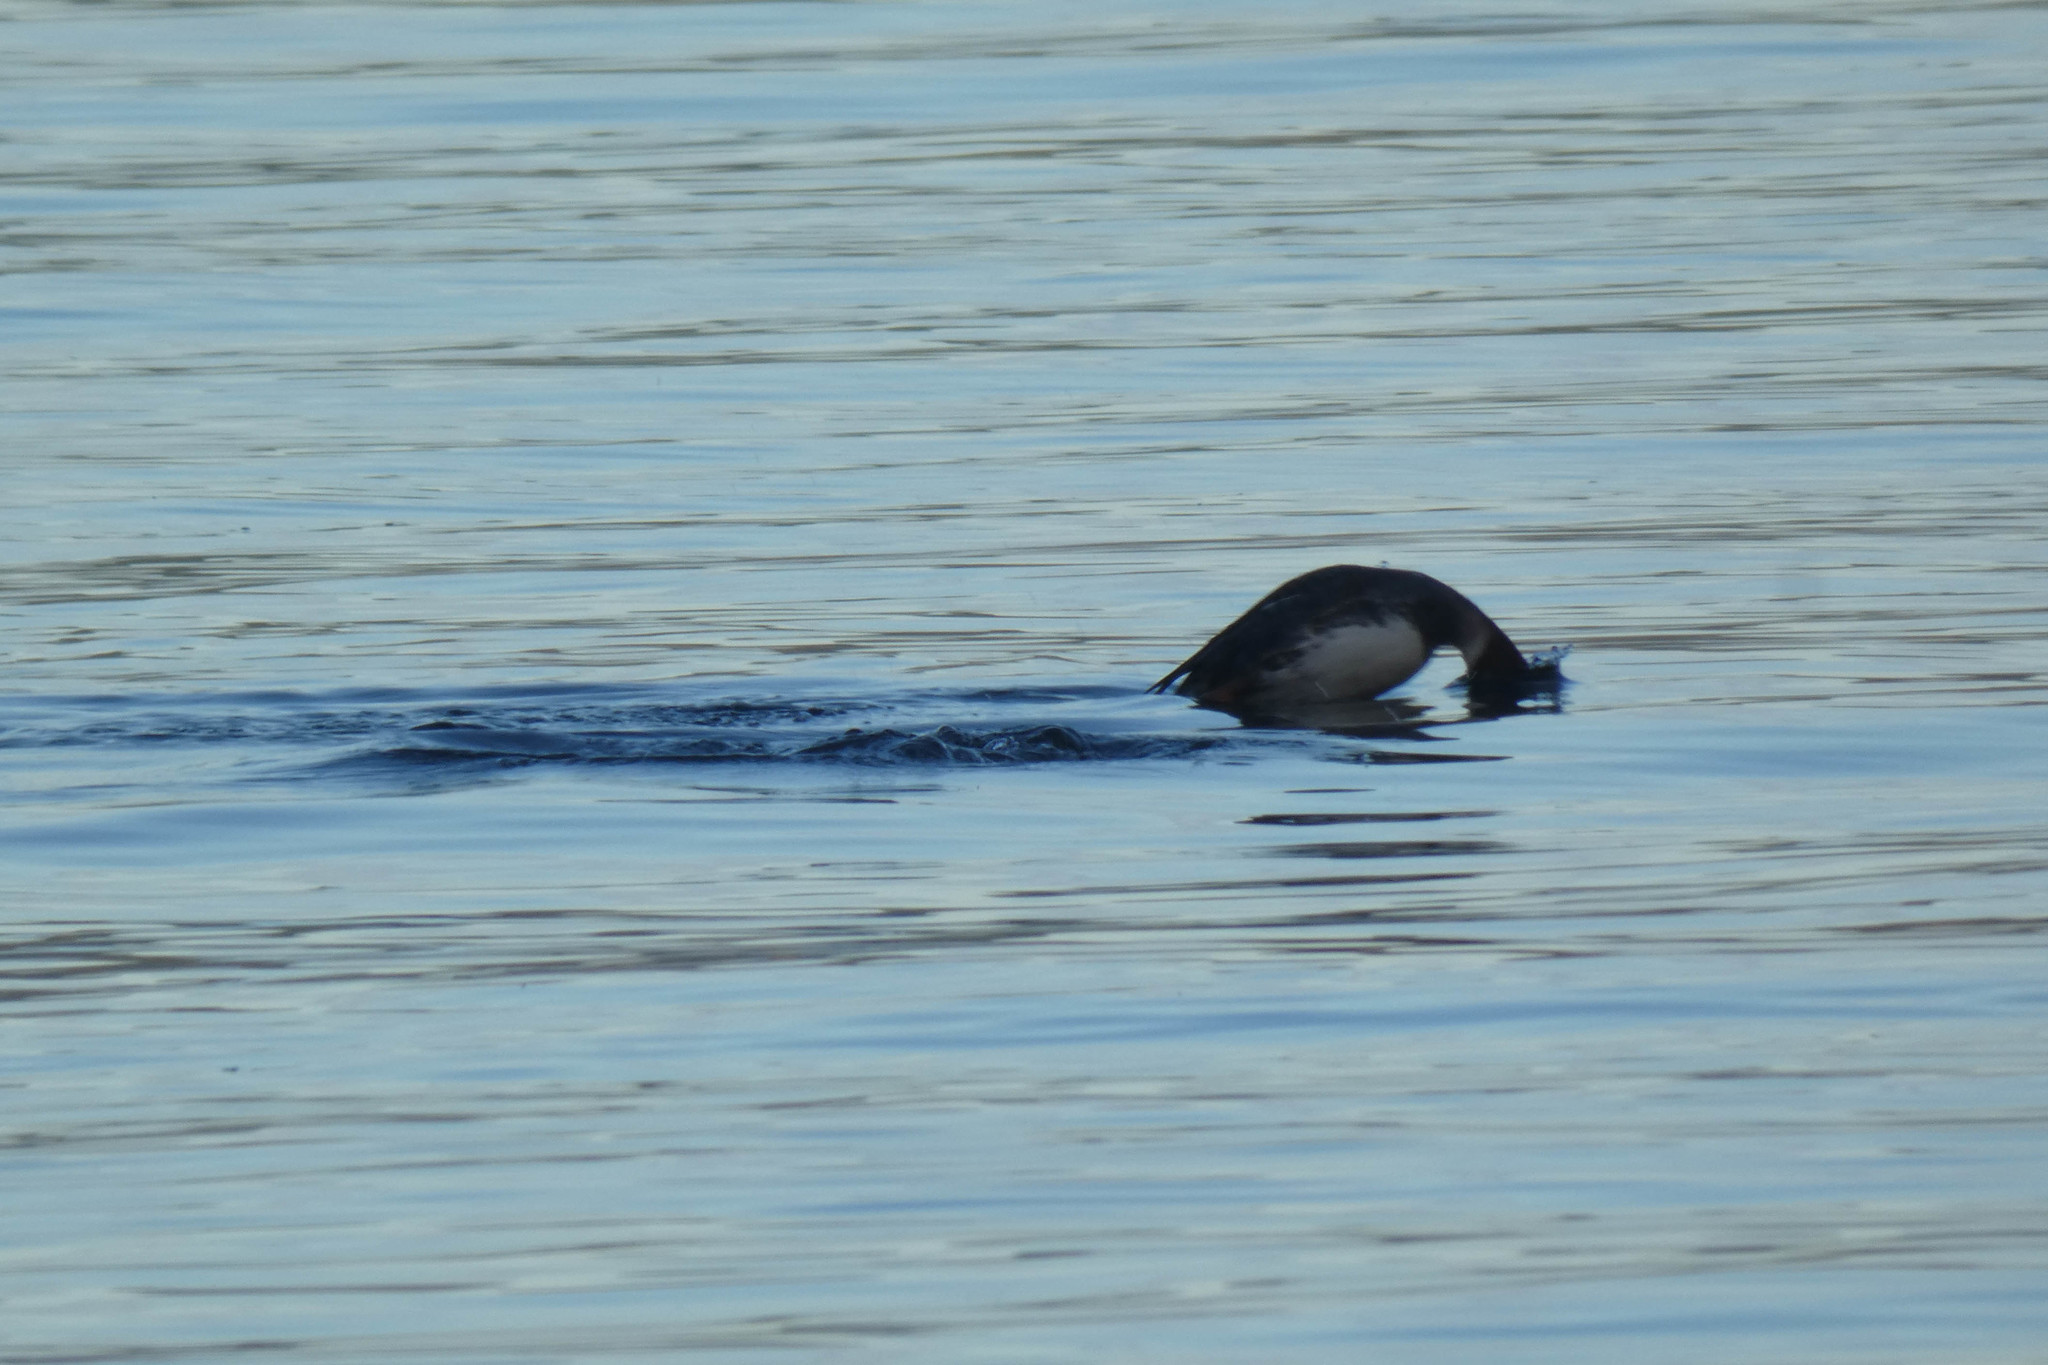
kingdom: Animalia
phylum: Chordata
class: Aves
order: Anseriformes
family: Anatidae
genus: Mergus
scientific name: Mergus merganser
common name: Common merganser
